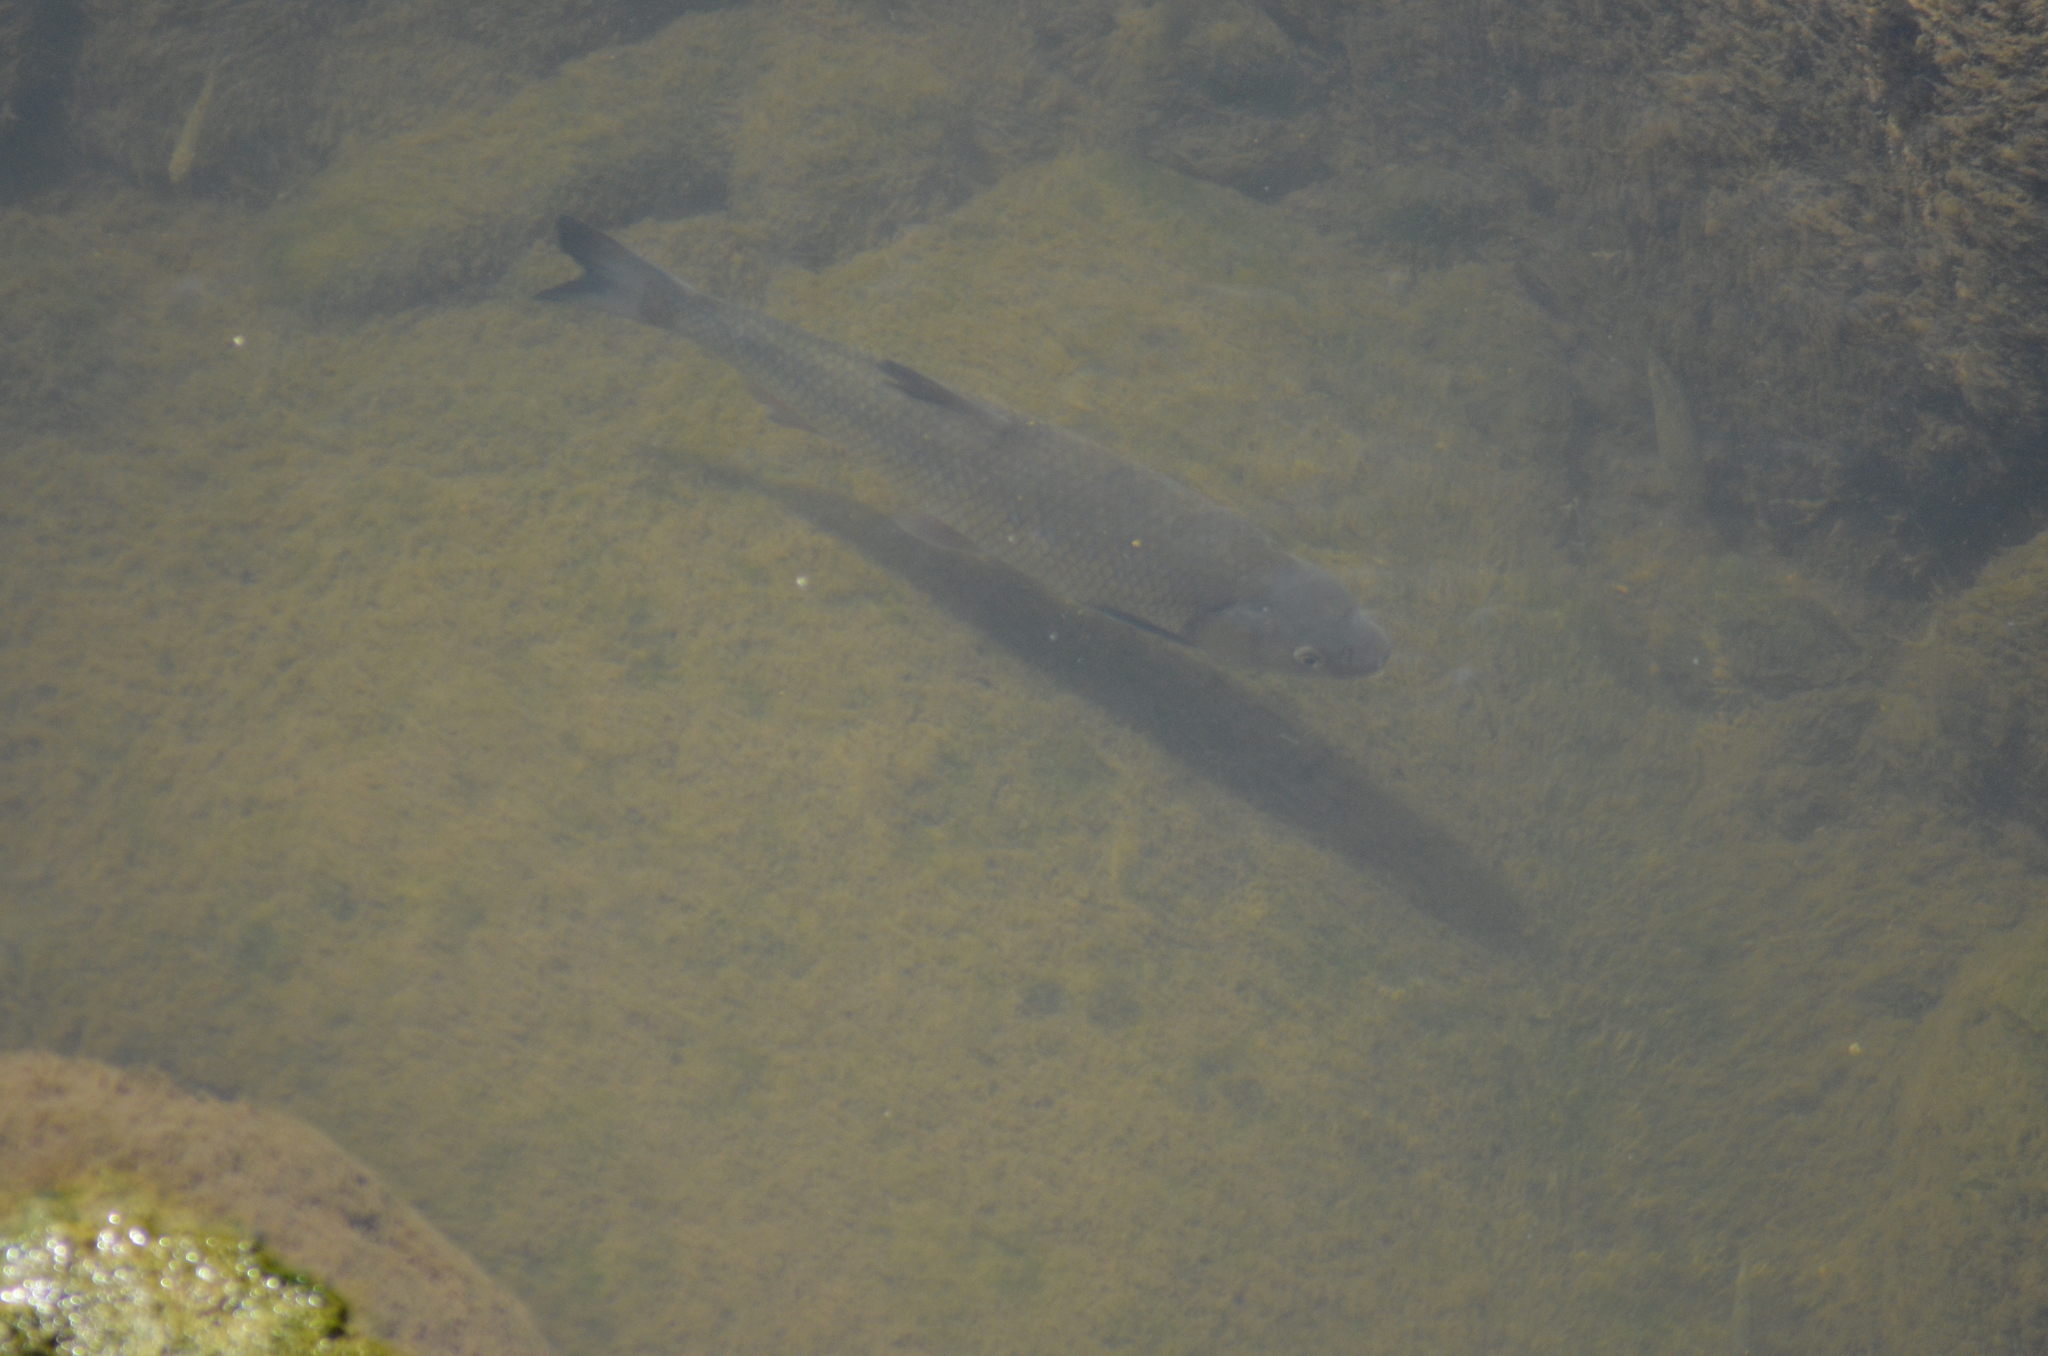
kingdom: Animalia
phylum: Chordata
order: Cypriniformes
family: Cyprinidae
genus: Squalius
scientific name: Squalius laietanus
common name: Catalan chub
